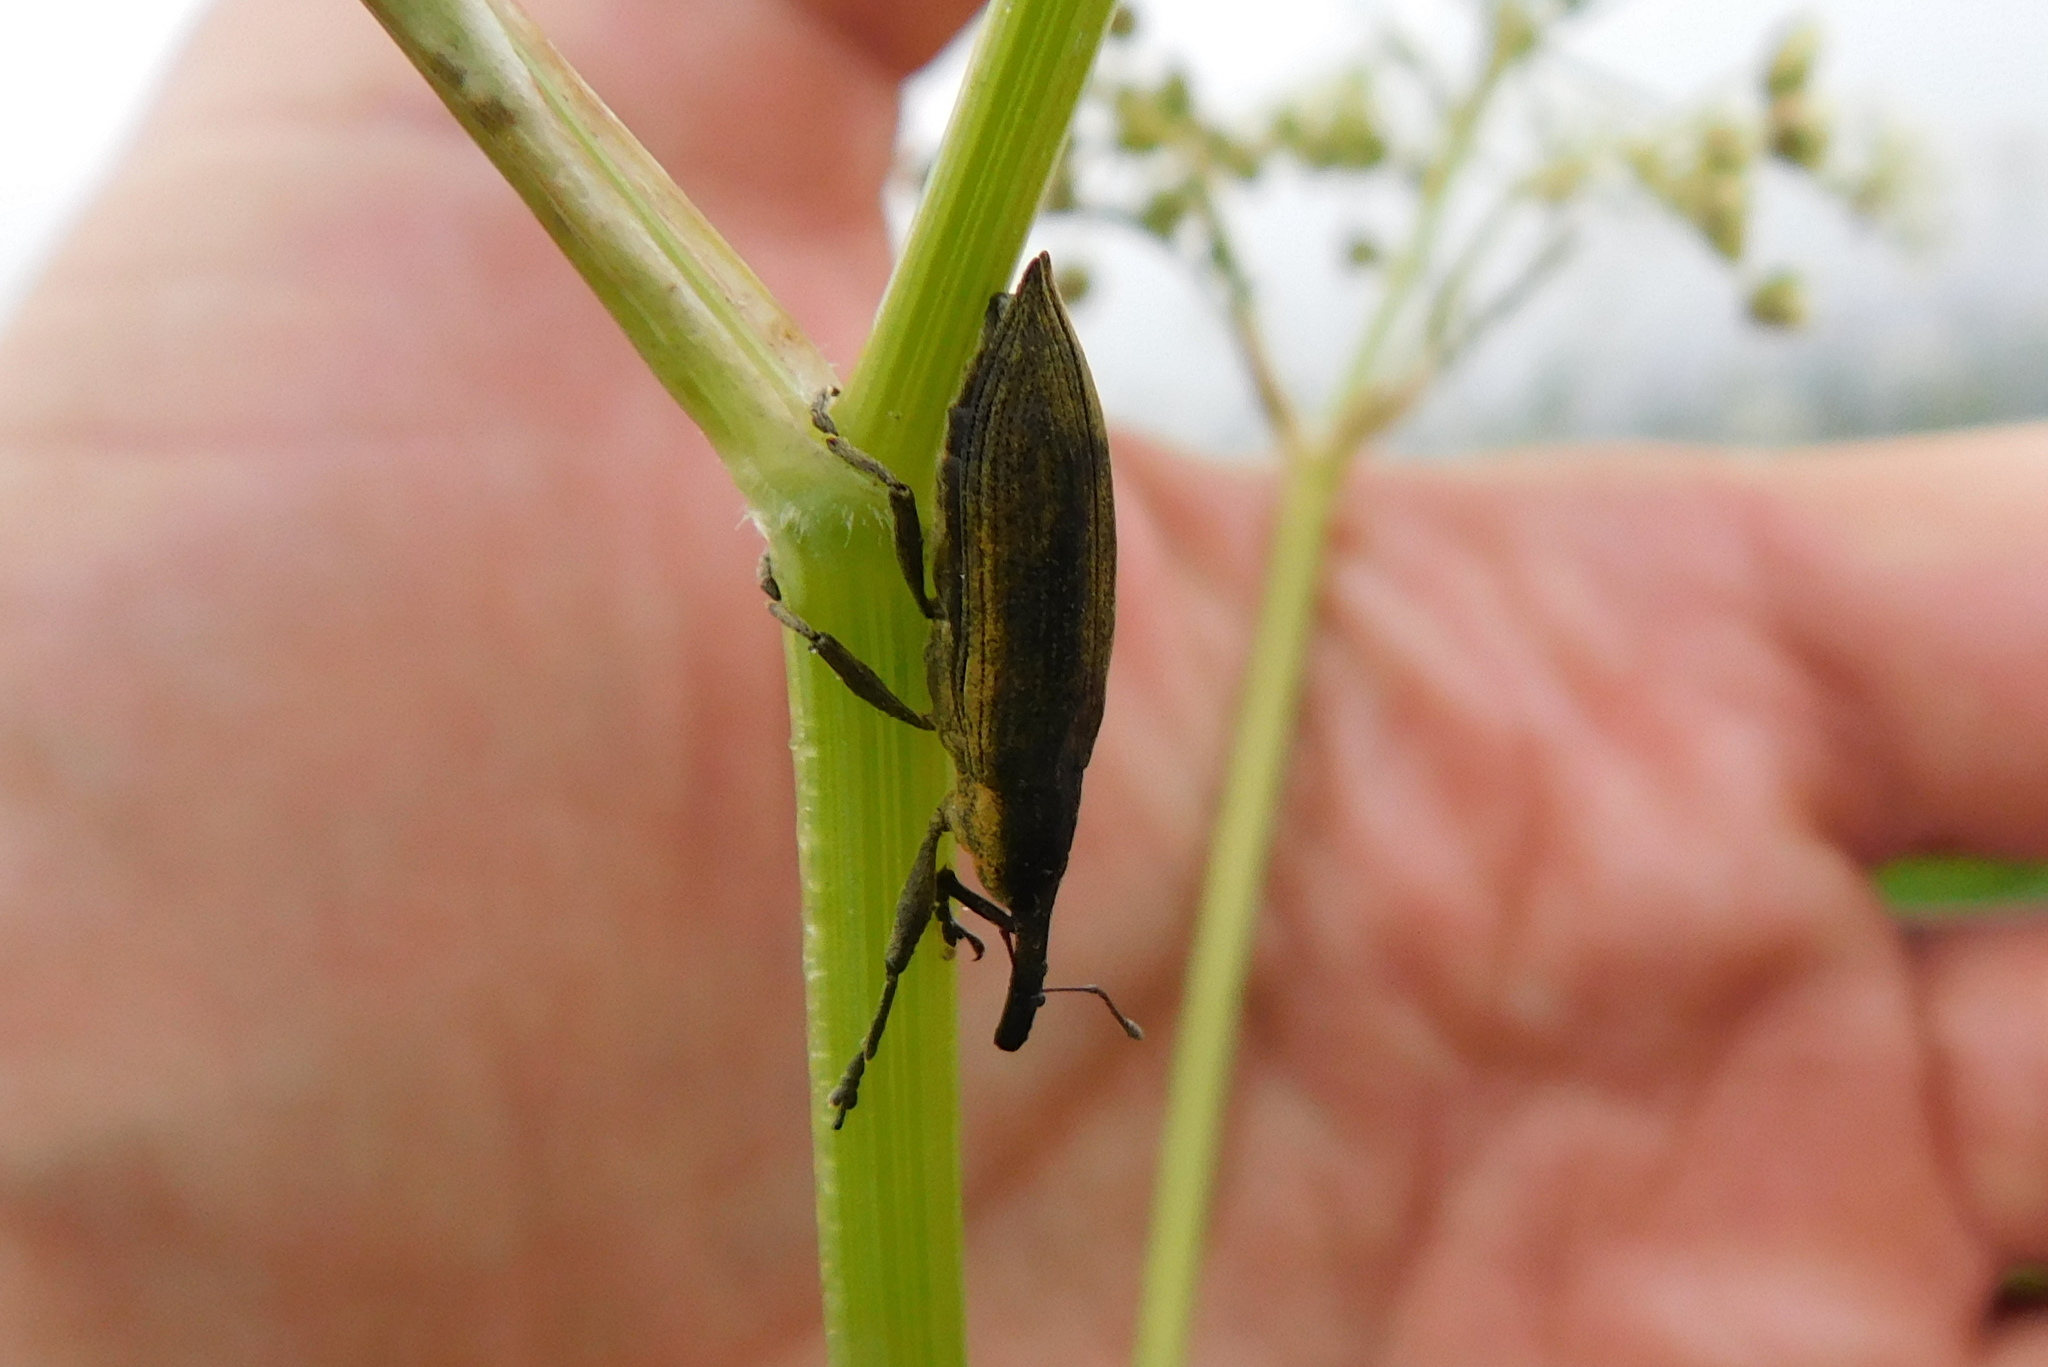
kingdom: Animalia
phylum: Arthropoda
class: Insecta
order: Coleoptera
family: Curculionidae
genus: Lixus
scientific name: Lixus iridis
